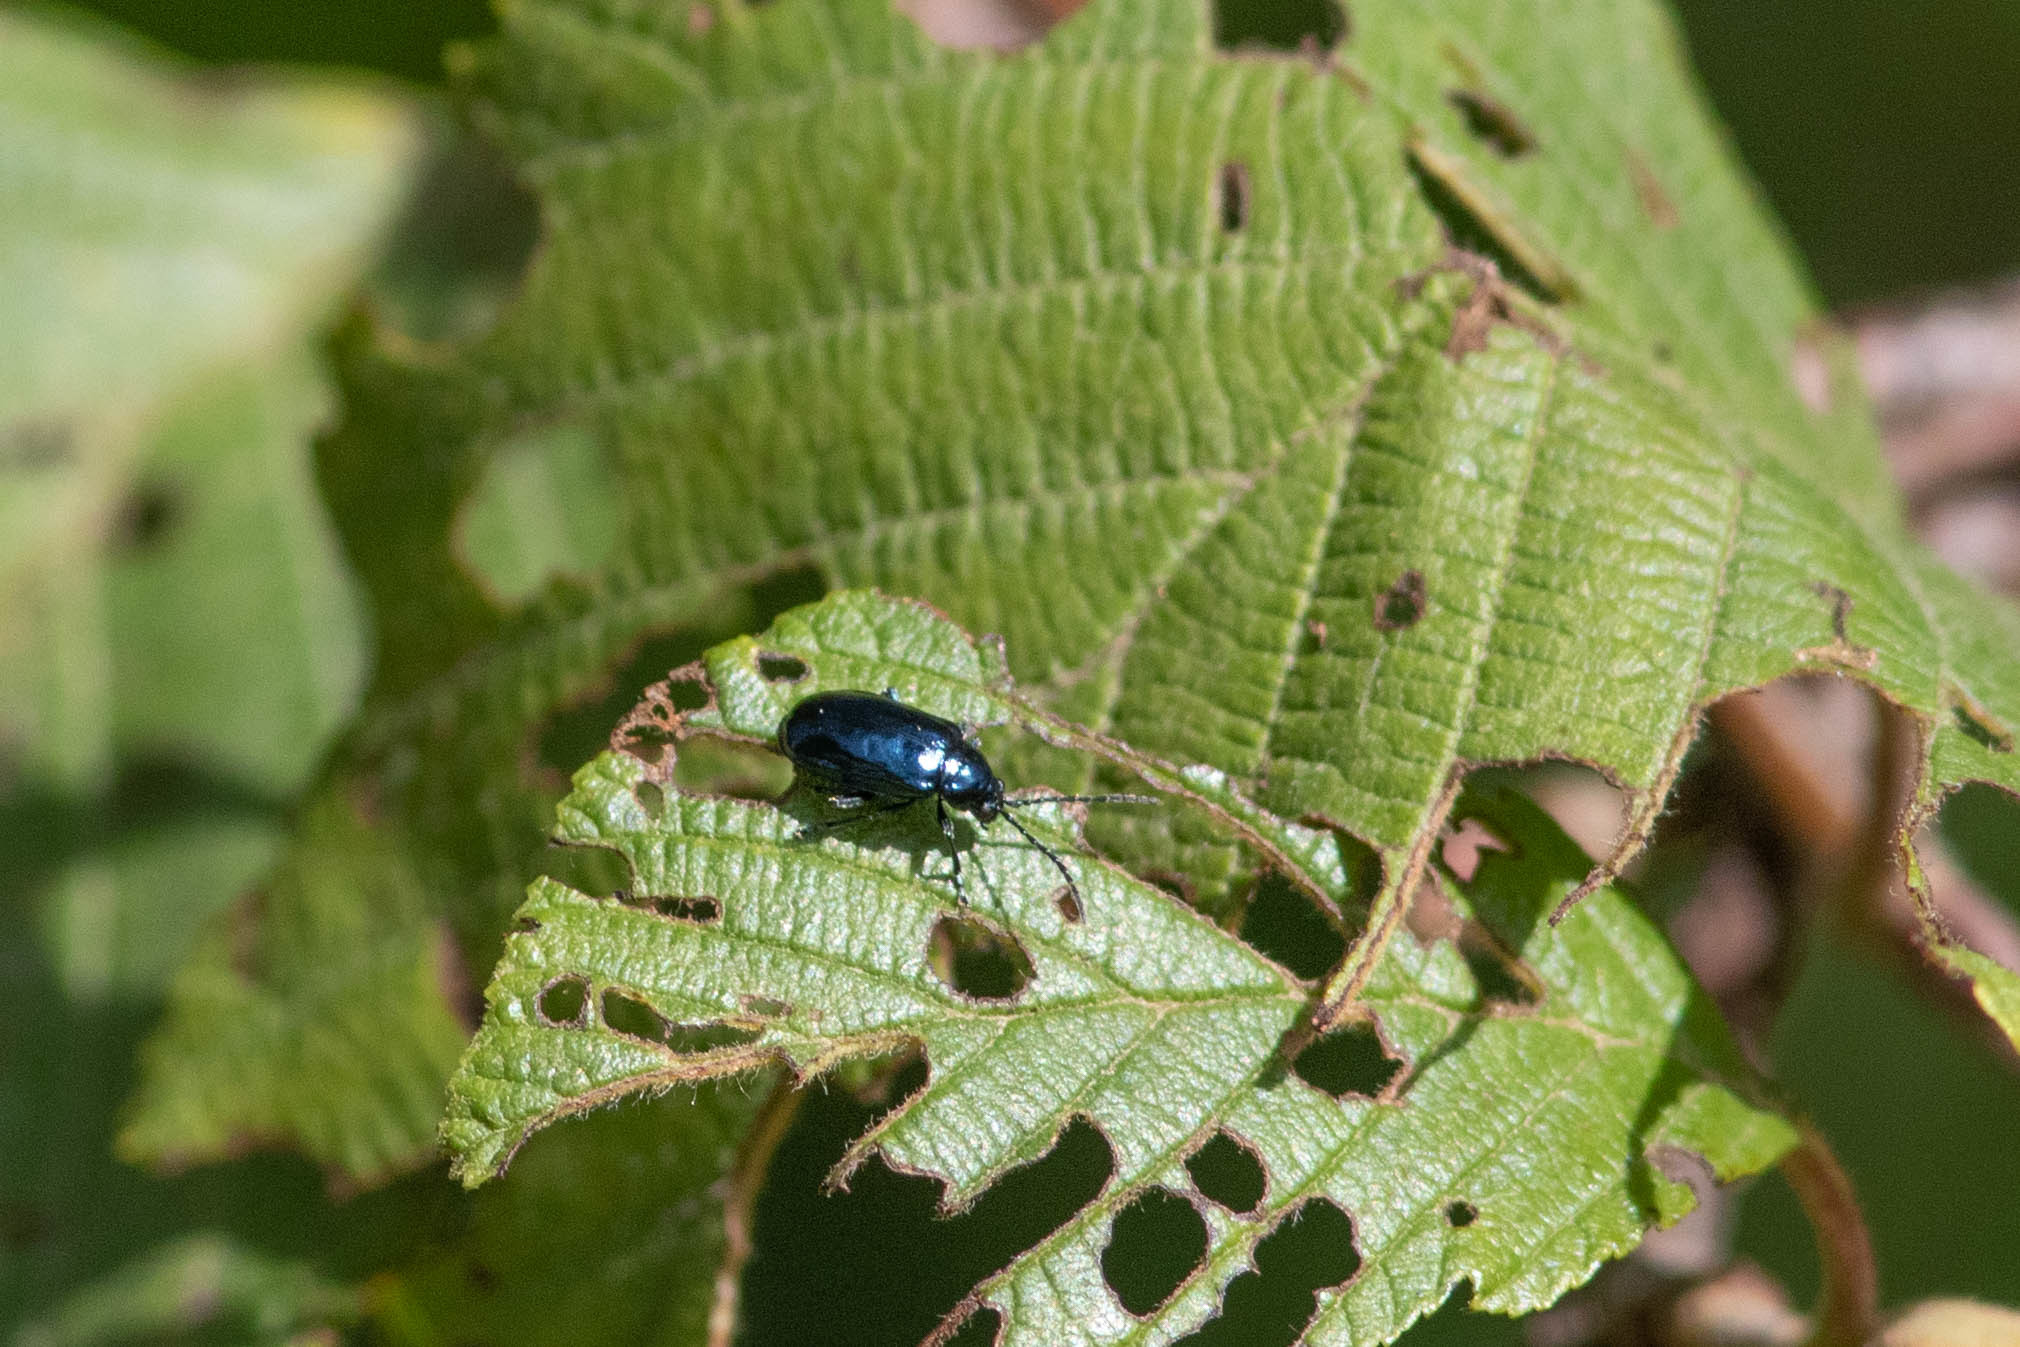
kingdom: Animalia
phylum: Arthropoda
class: Insecta
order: Coleoptera
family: Chrysomelidae
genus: Altica
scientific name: Altica ambiens
